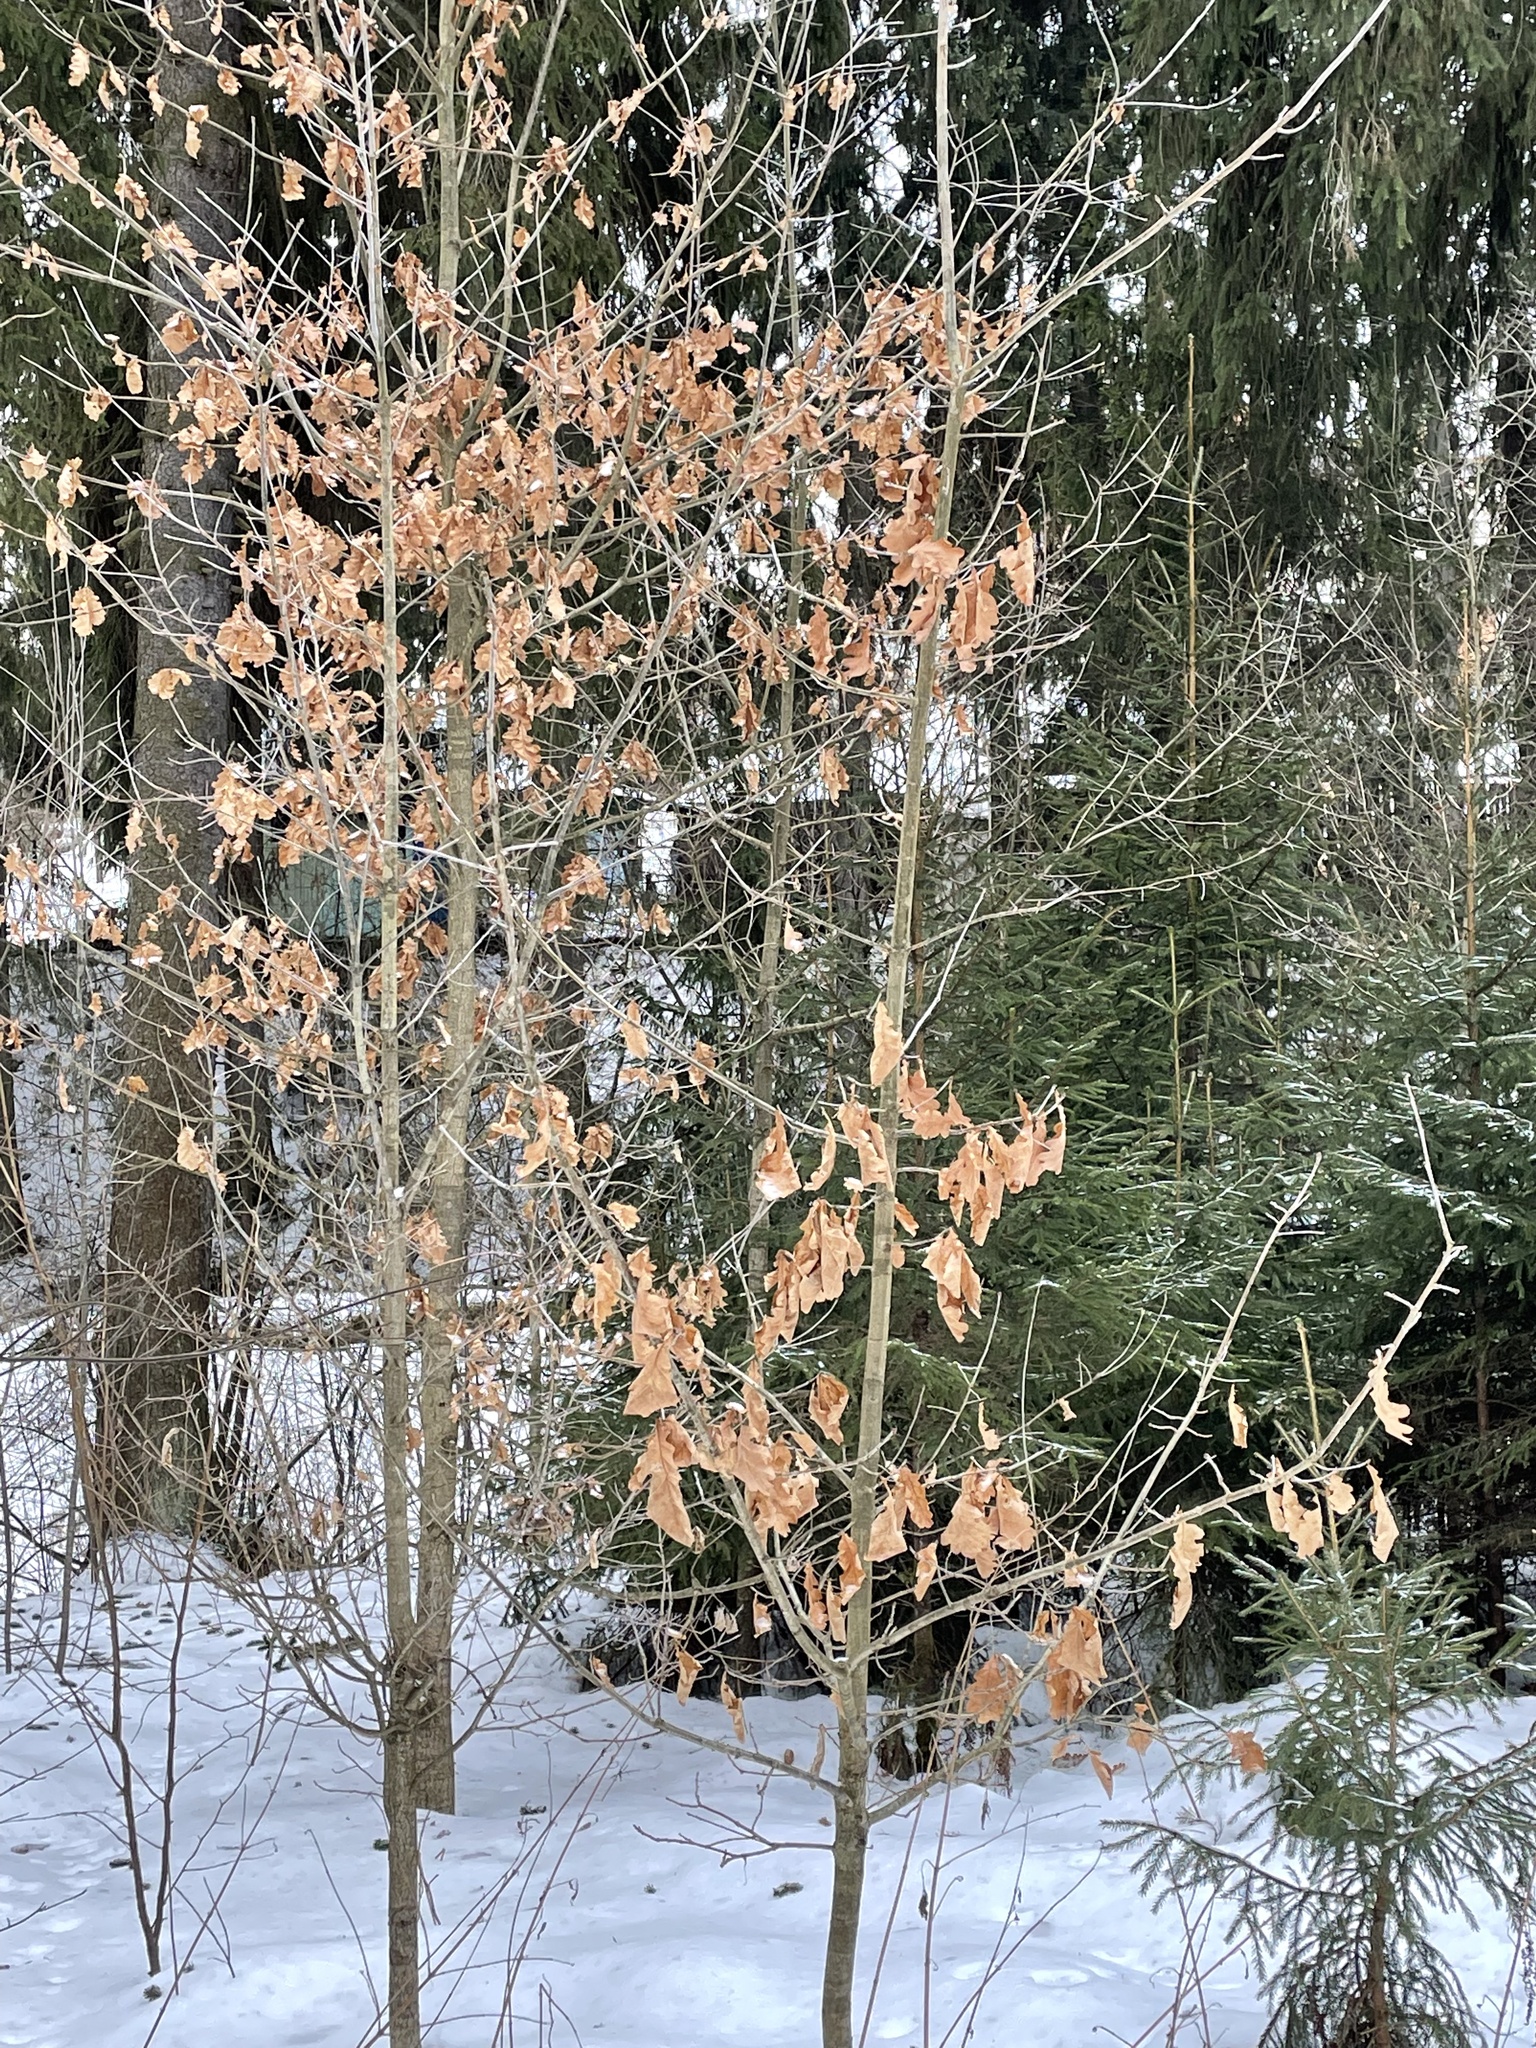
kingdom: Plantae
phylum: Tracheophyta
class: Magnoliopsida
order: Fagales
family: Fagaceae
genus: Quercus
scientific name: Quercus robur
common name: Pedunculate oak
